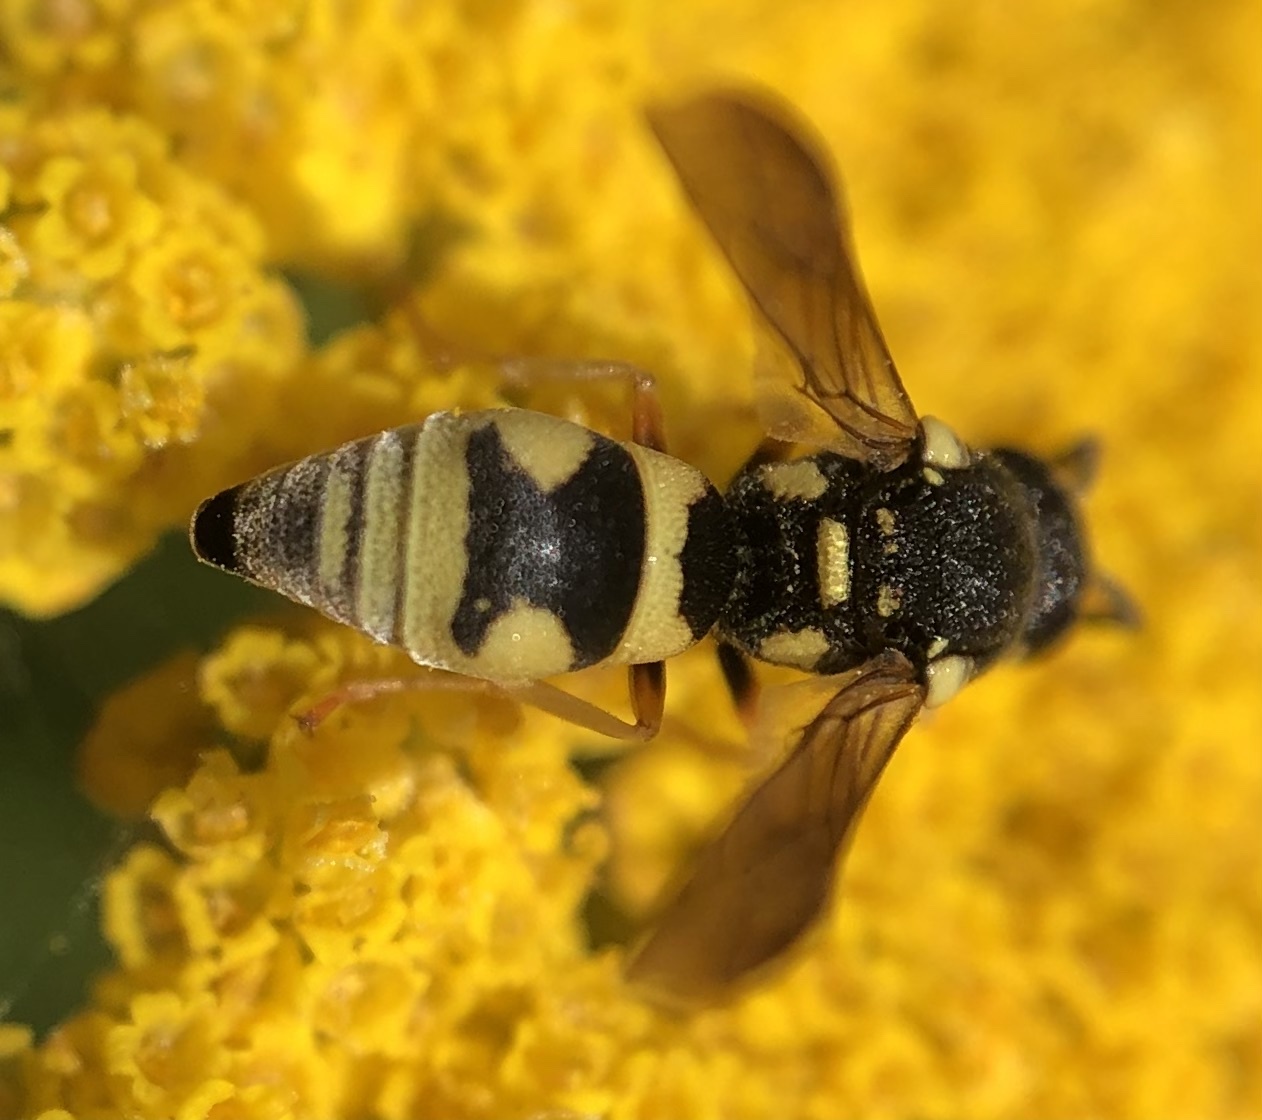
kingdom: Animalia
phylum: Arthropoda
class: Insecta
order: Hymenoptera
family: Eumenidae
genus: Parodontodynerus
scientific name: Parodontodynerus ephippium
